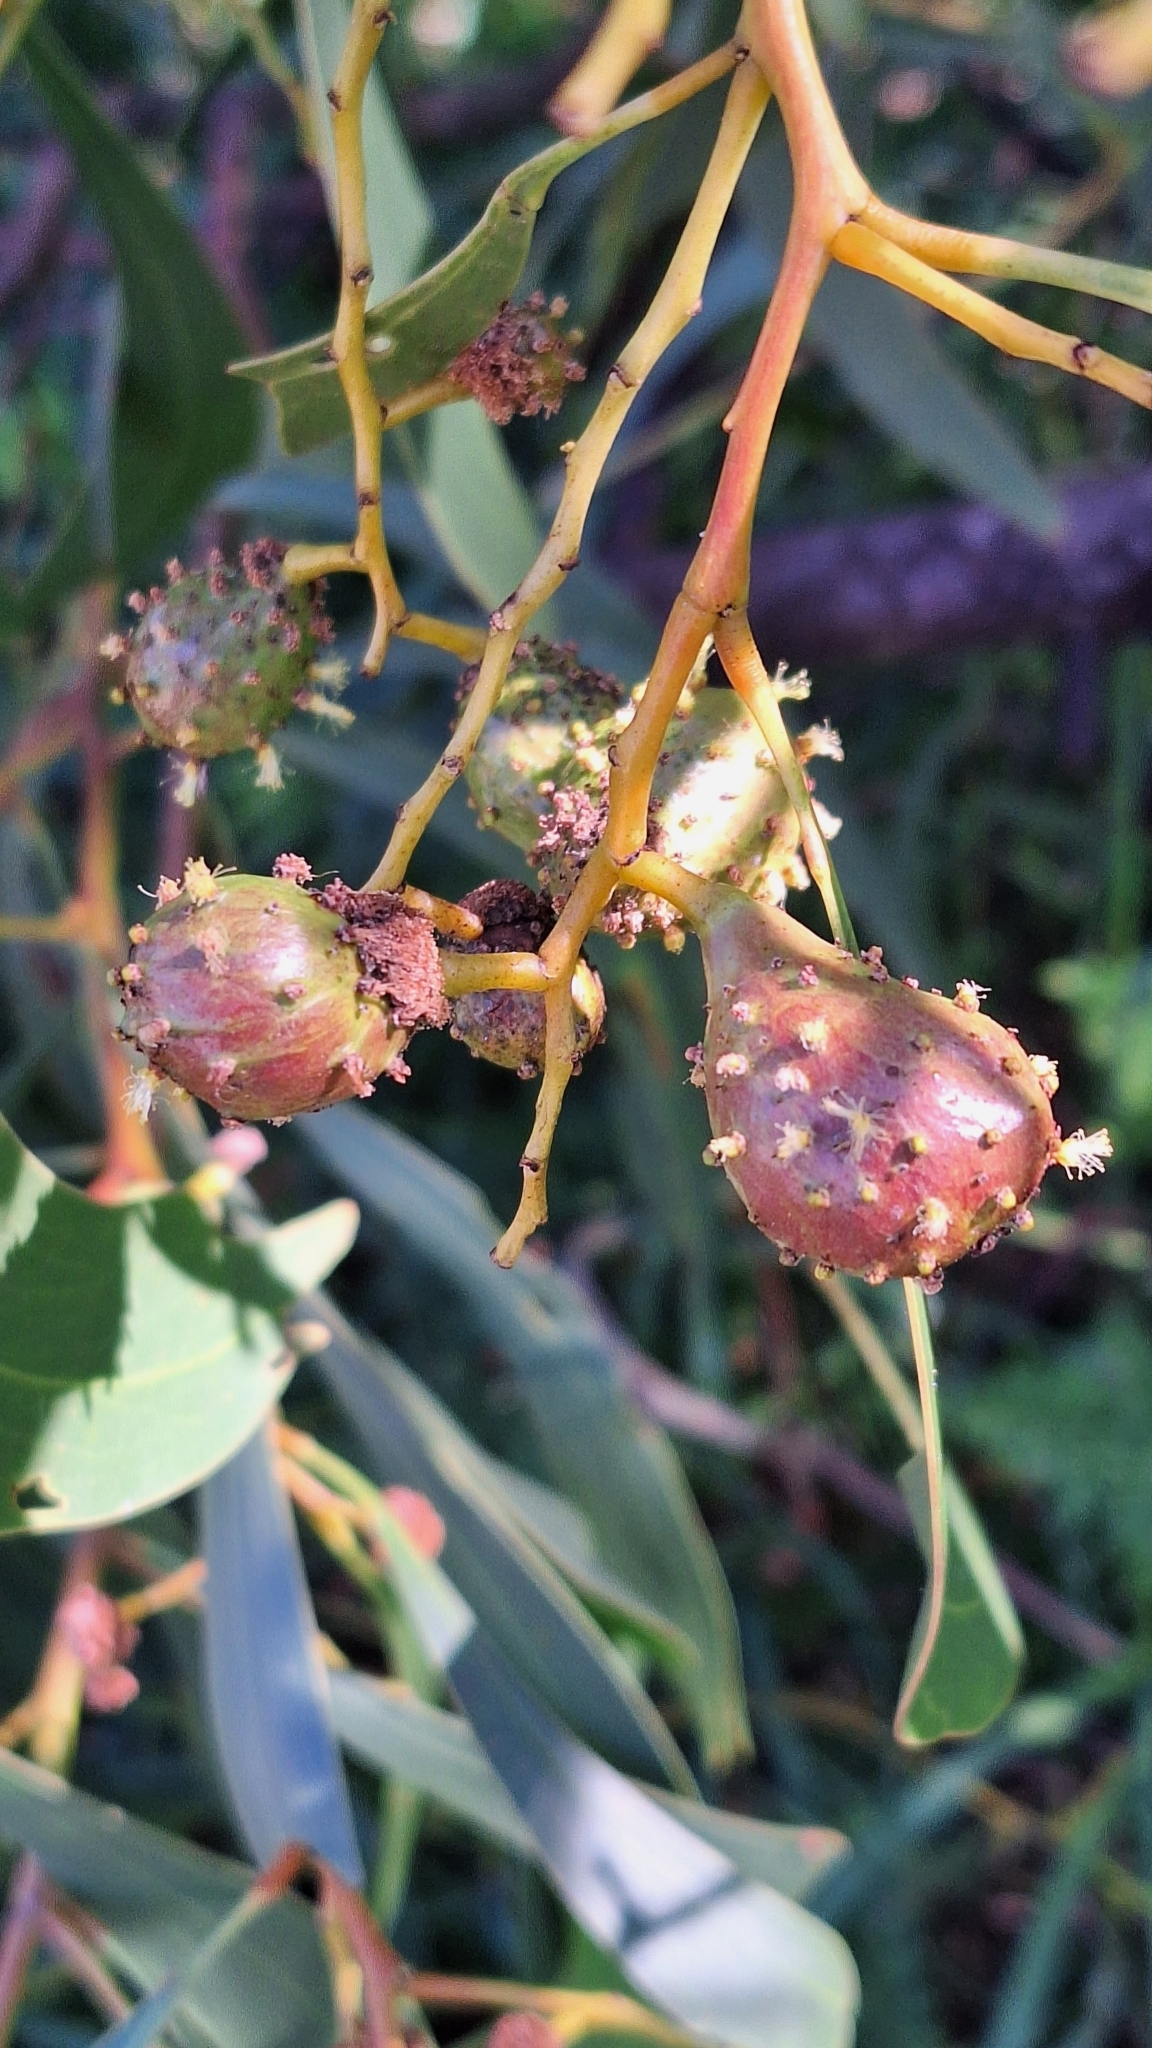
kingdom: Animalia
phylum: Arthropoda
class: Insecta
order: Hymenoptera
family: Pteromalidae
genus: Trichilogaster
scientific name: Trichilogaster signiventris
